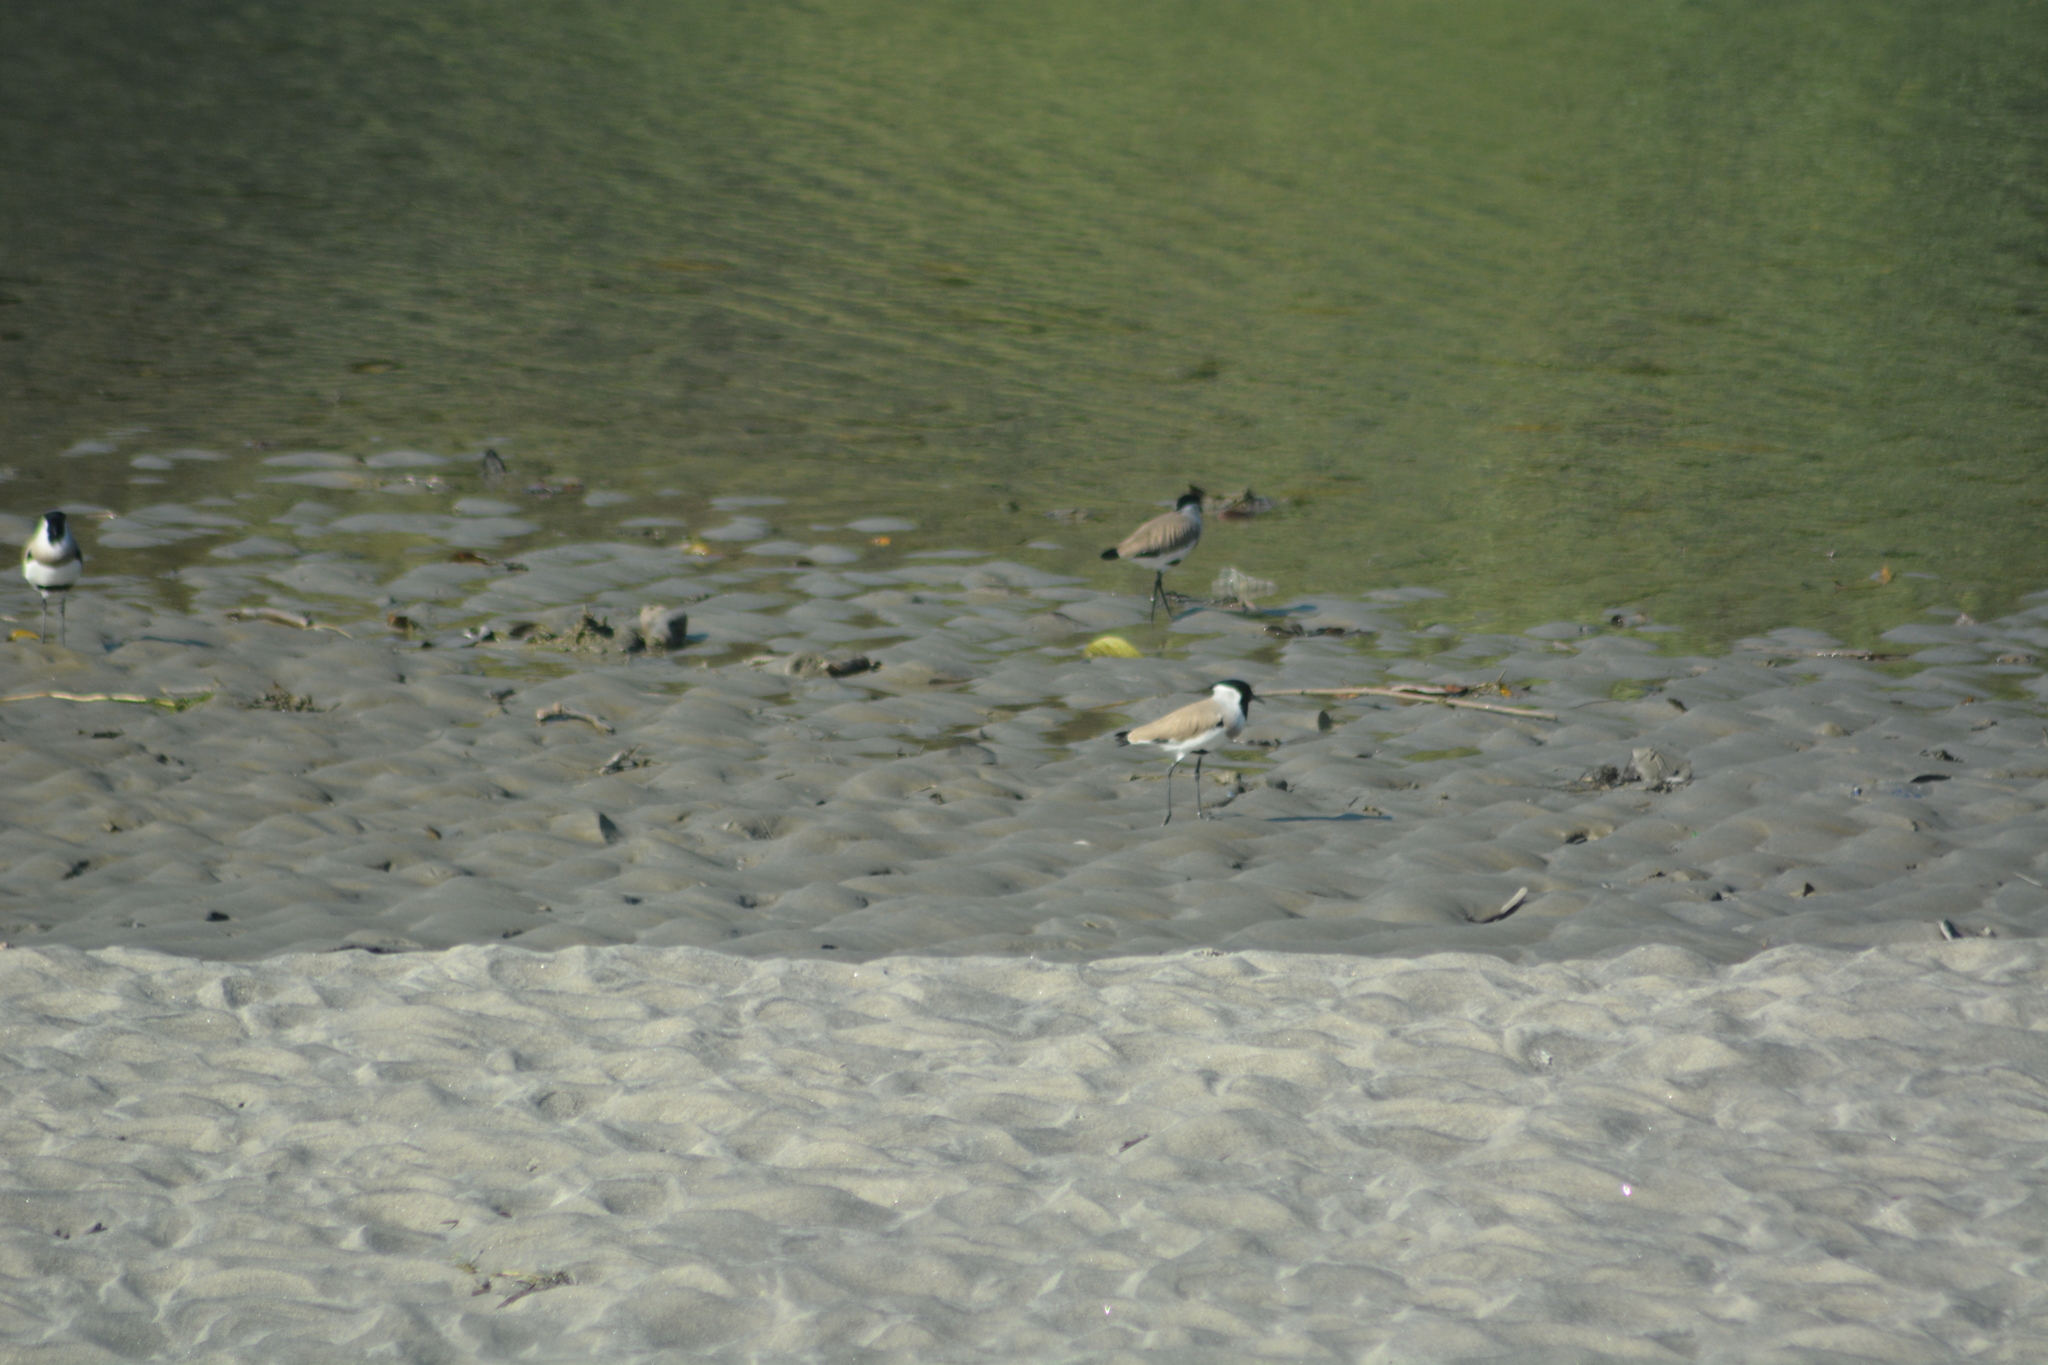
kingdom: Animalia
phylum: Chordata
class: Aves
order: Charadriiformes
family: Charadriidae
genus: Vanellus
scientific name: Vanellus duvaucelii
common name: River lapwing
